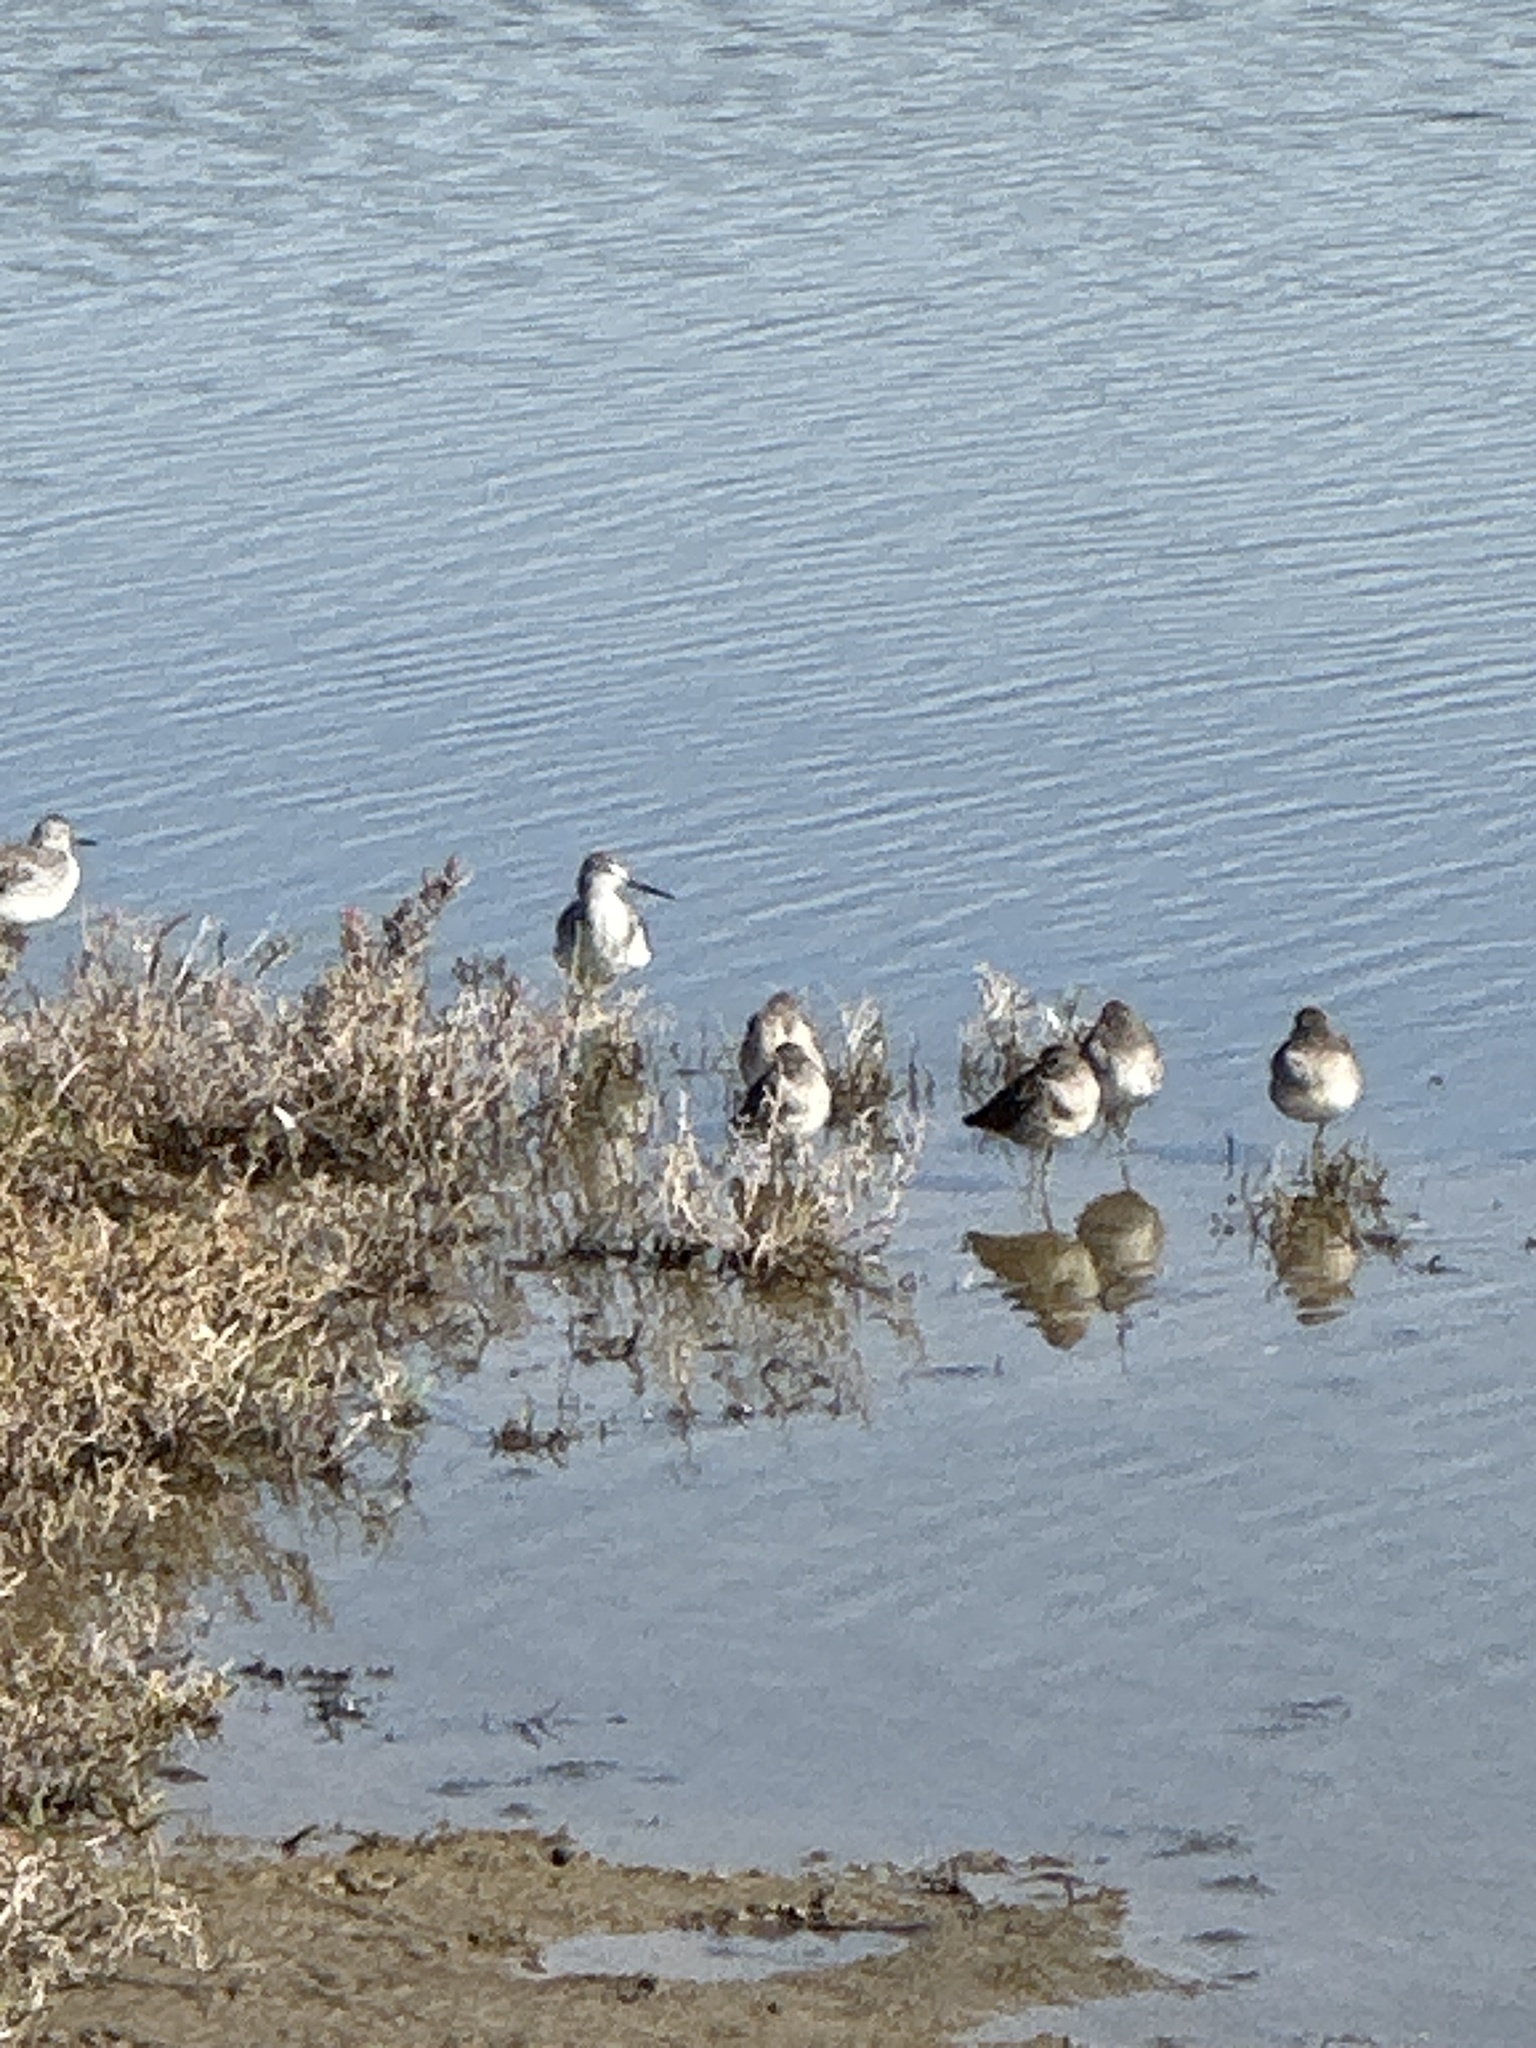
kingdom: Animalia
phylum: Chordata
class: Aves
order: Charadriiformes
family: Scolopacidae
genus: Tringa
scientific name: Tringa melanoleuca
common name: Greater yellowlegs
